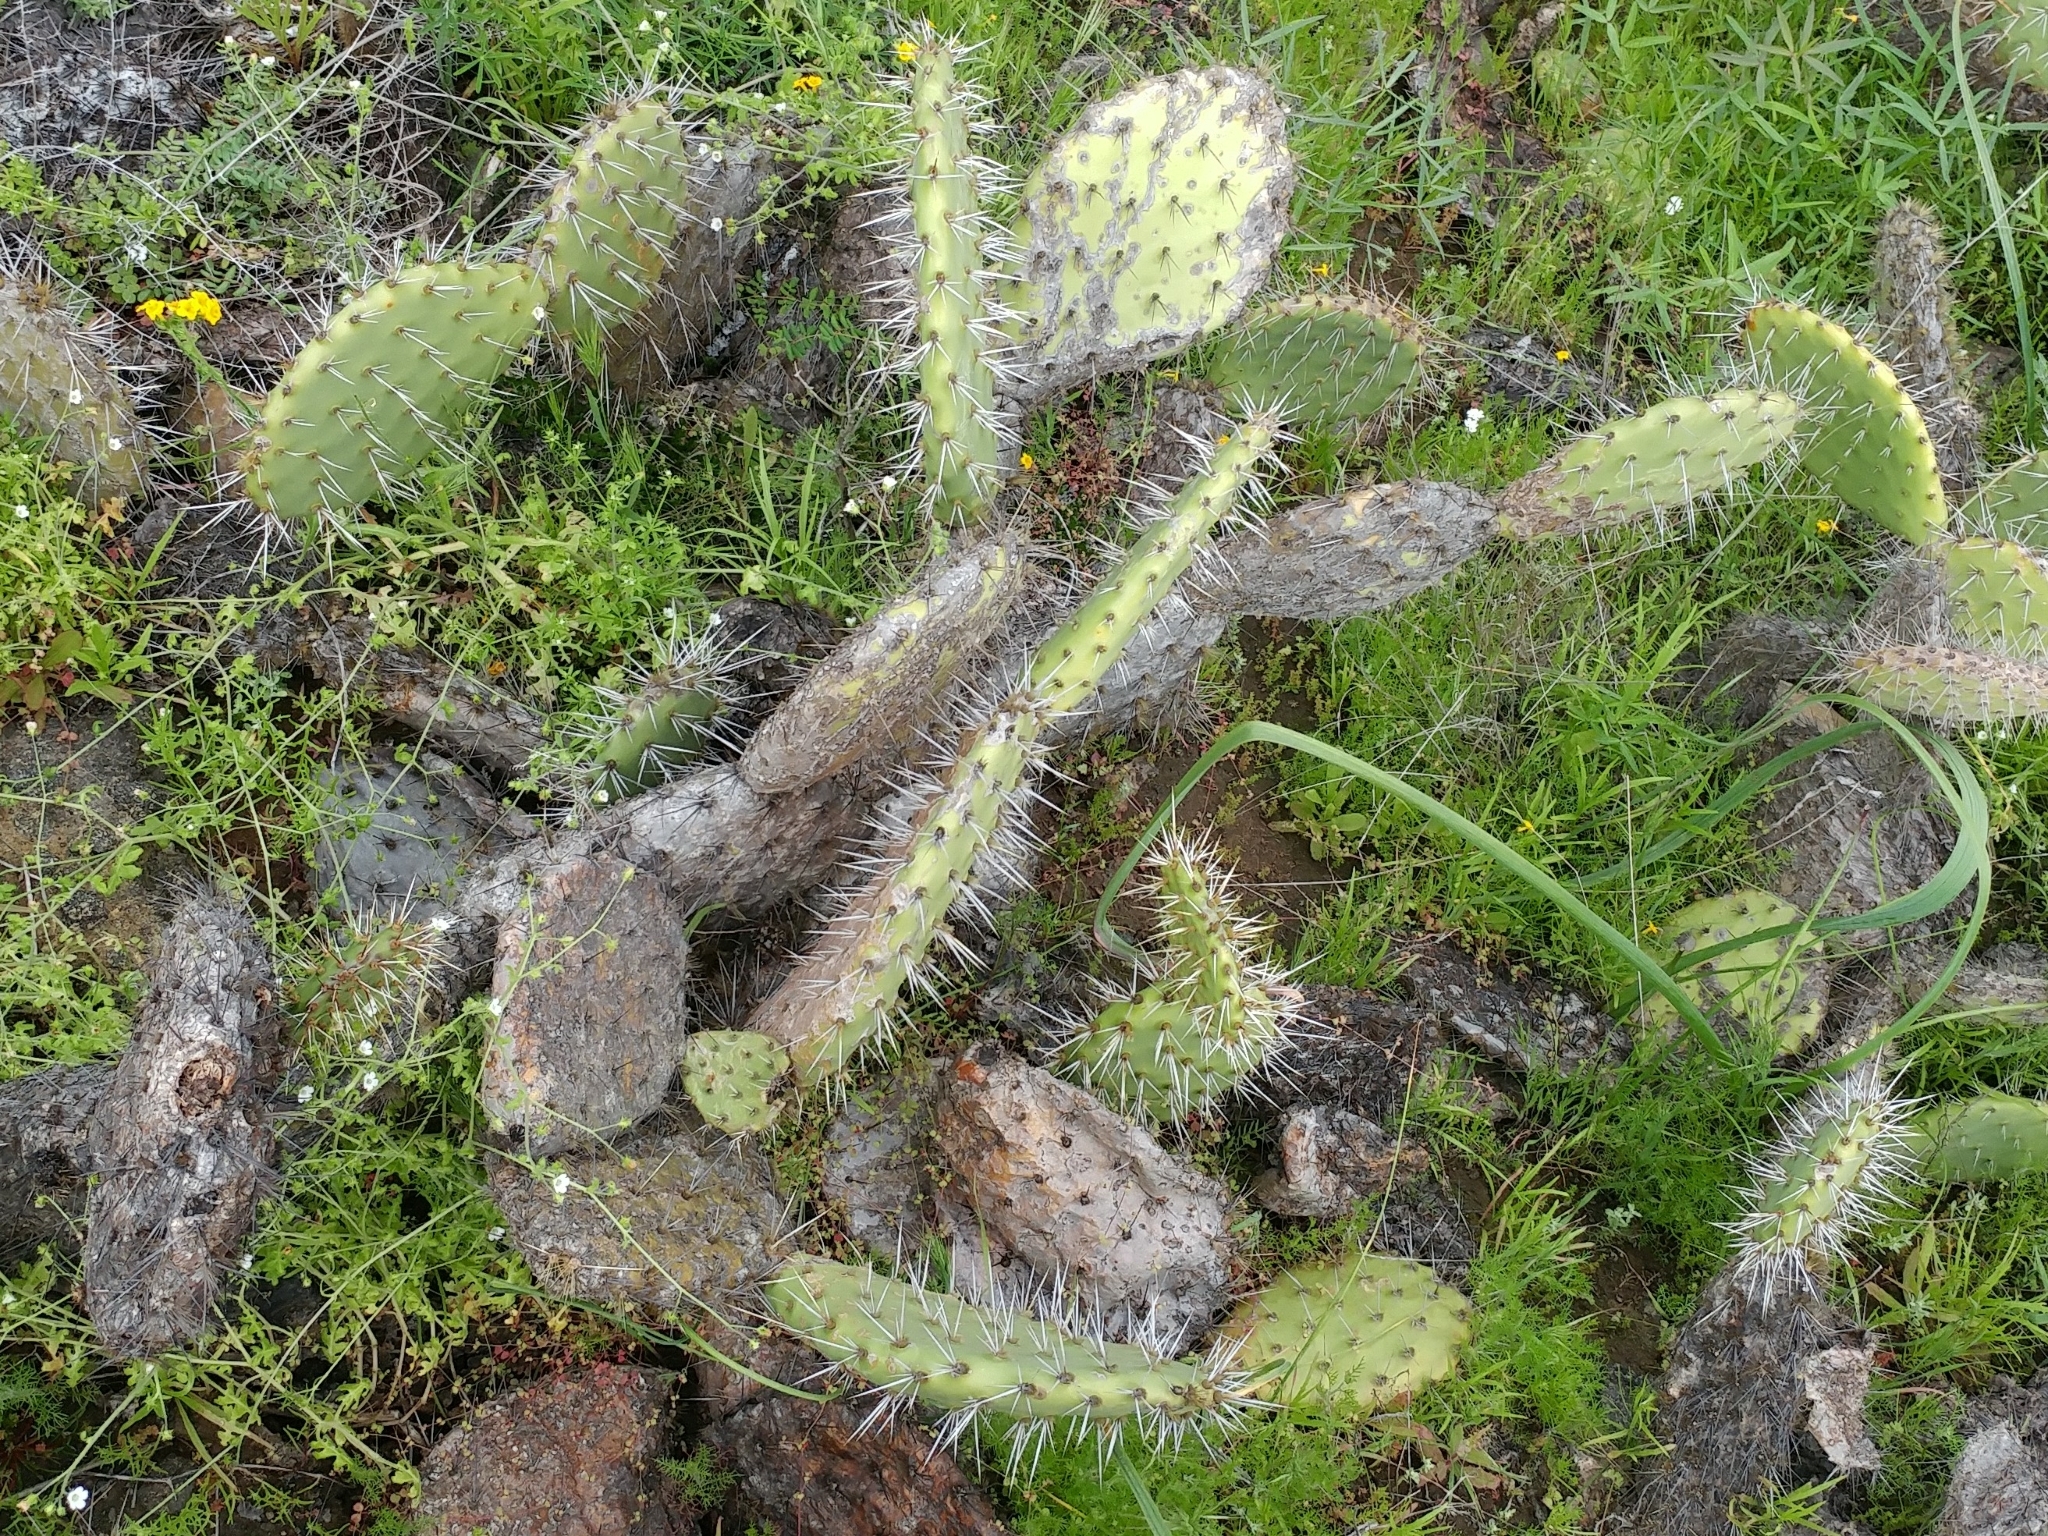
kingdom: Plantae
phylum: Tracheophyta
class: Magnoliopsida
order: Caryophyllales
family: Cactaceae
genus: Opuntia
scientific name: Opuntia littoralis
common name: Coastal prickly-pear
